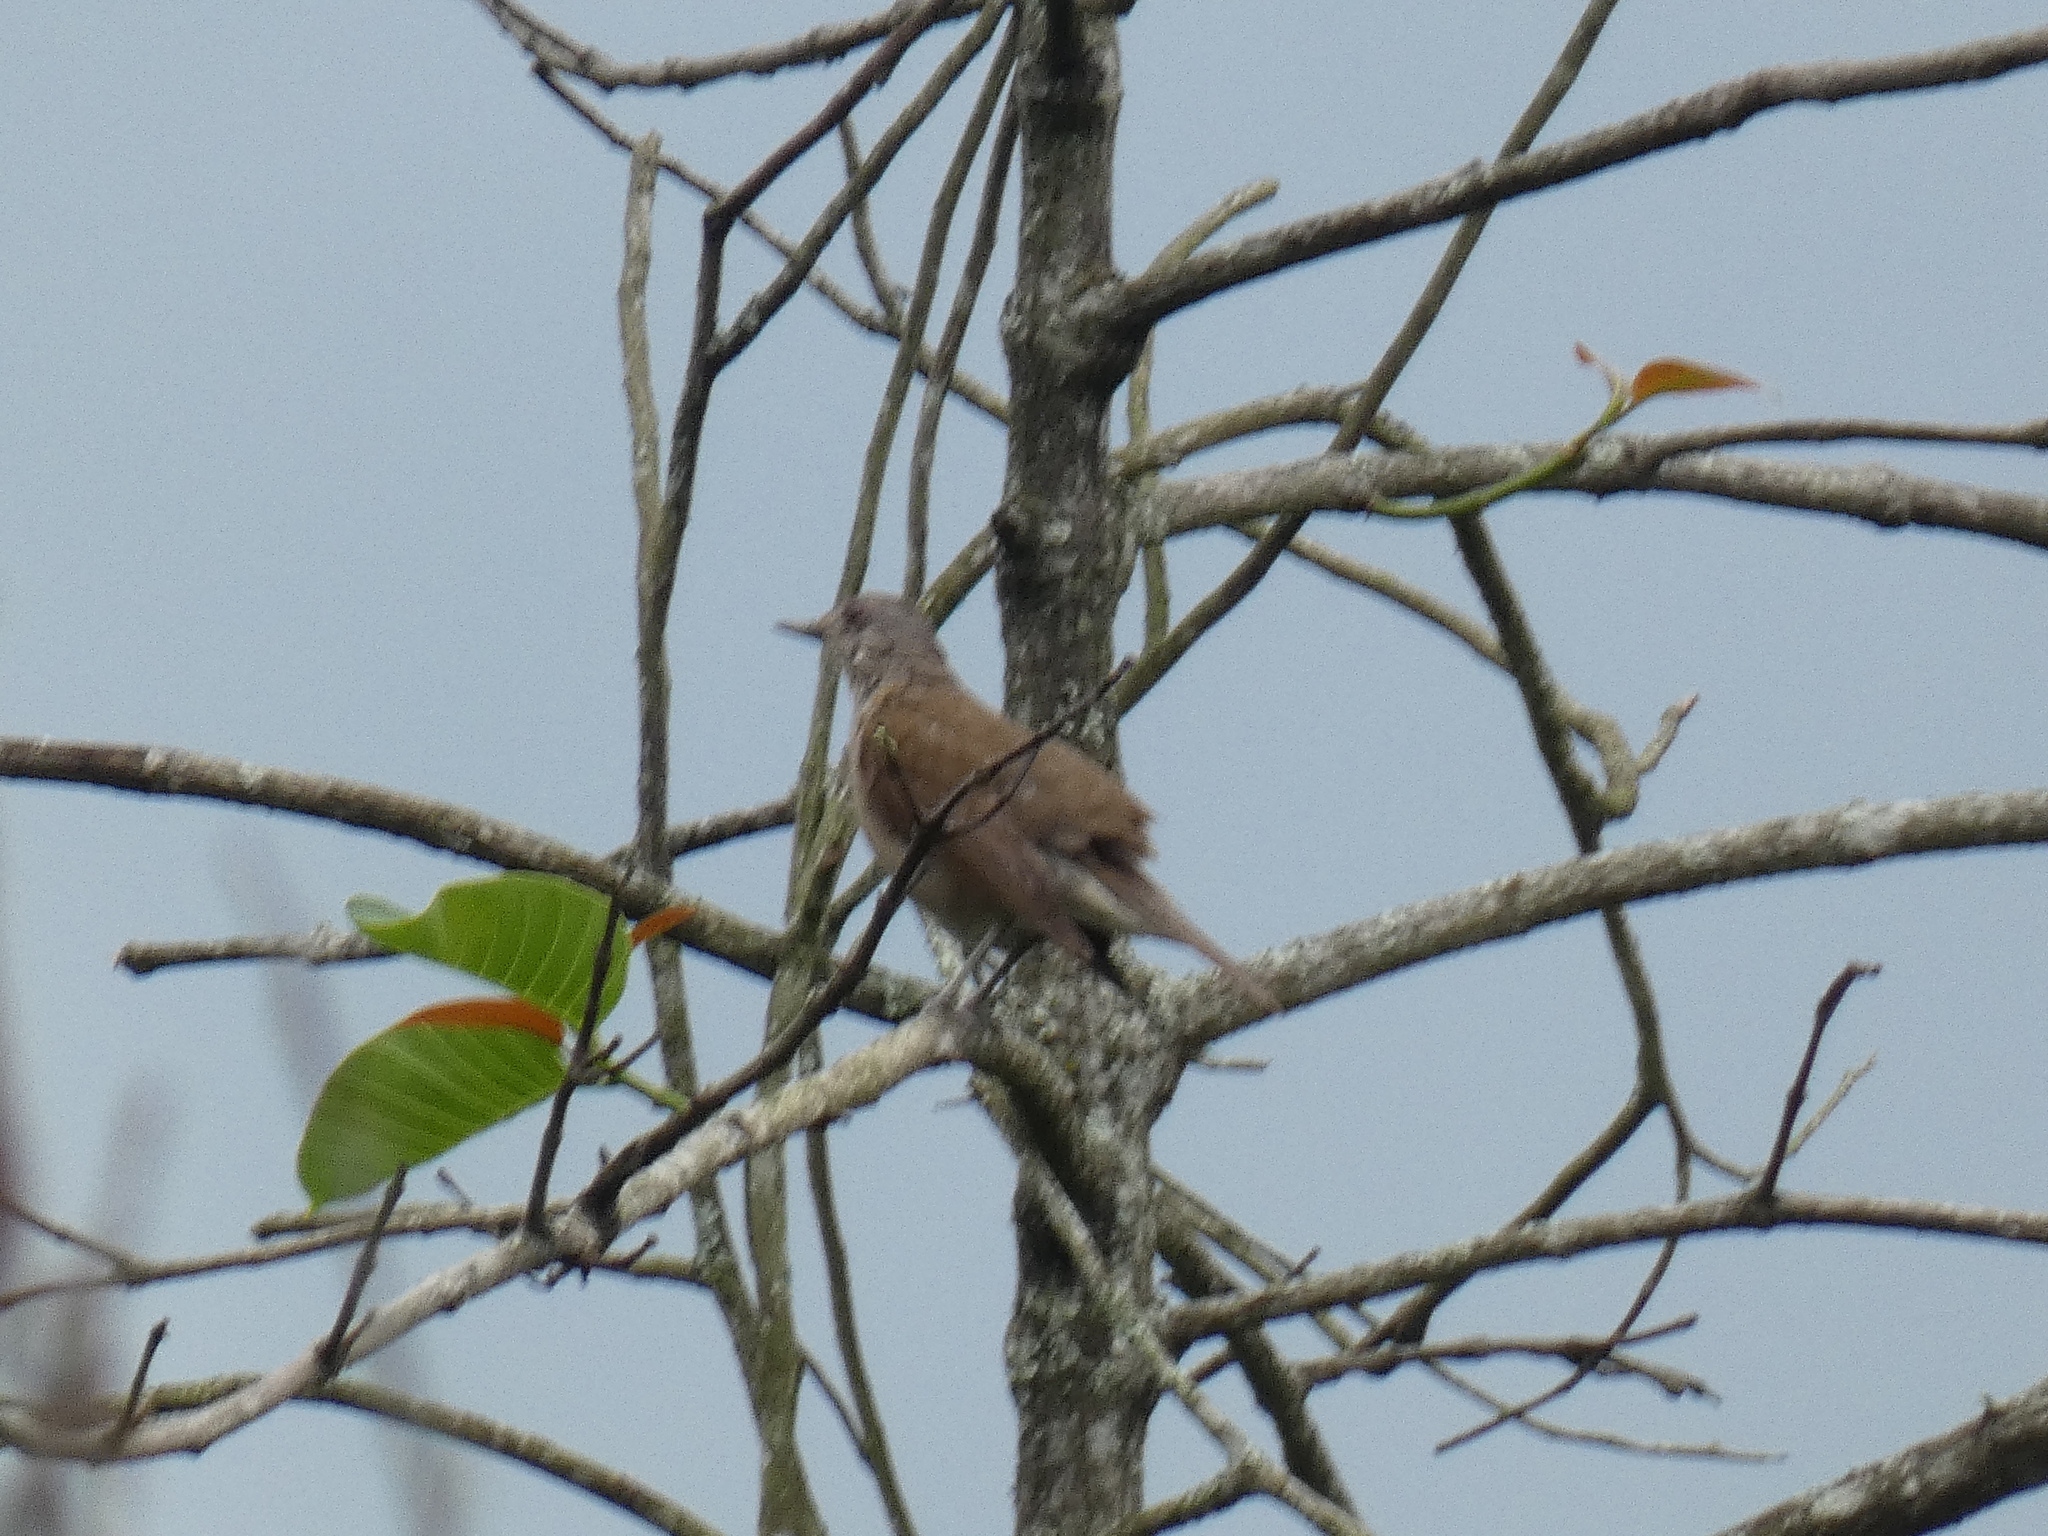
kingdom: Animalia
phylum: Chordata
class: Aves
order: Passeriformes
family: Turdidae
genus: Turdus
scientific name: Turdus leucomelas
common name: Pale-breasted thrush
